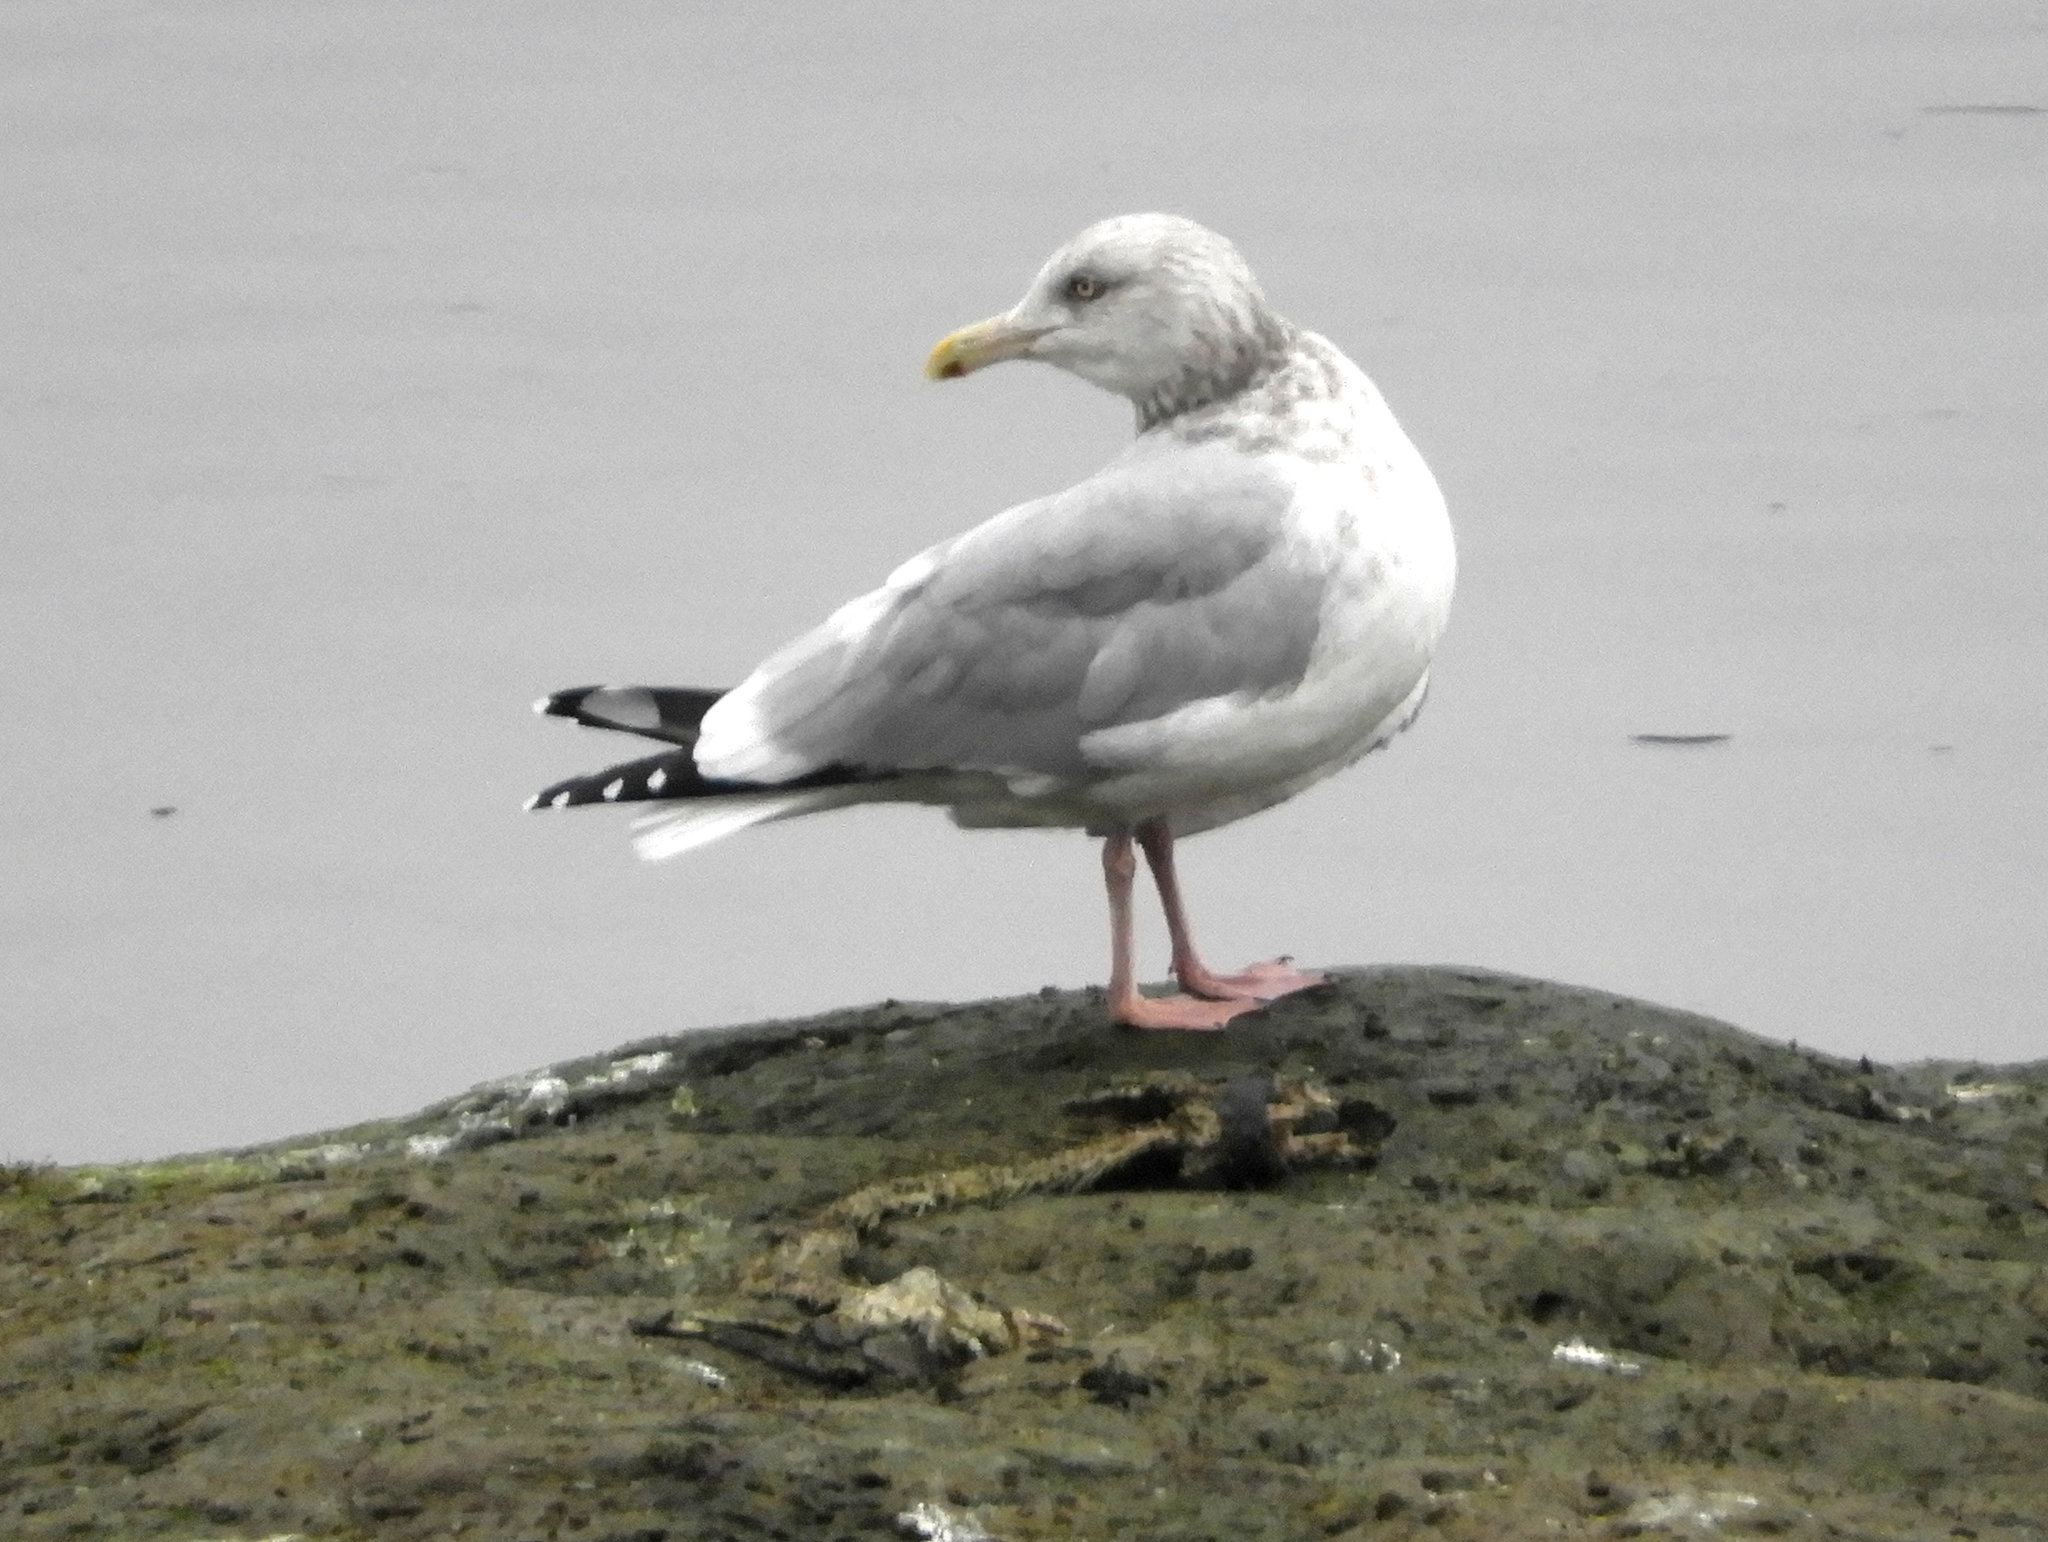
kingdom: Animalia
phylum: Chordata
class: Aves
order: Charadriiformes
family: Laridae
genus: Larus
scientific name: Larus argentatus
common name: Herring gull
